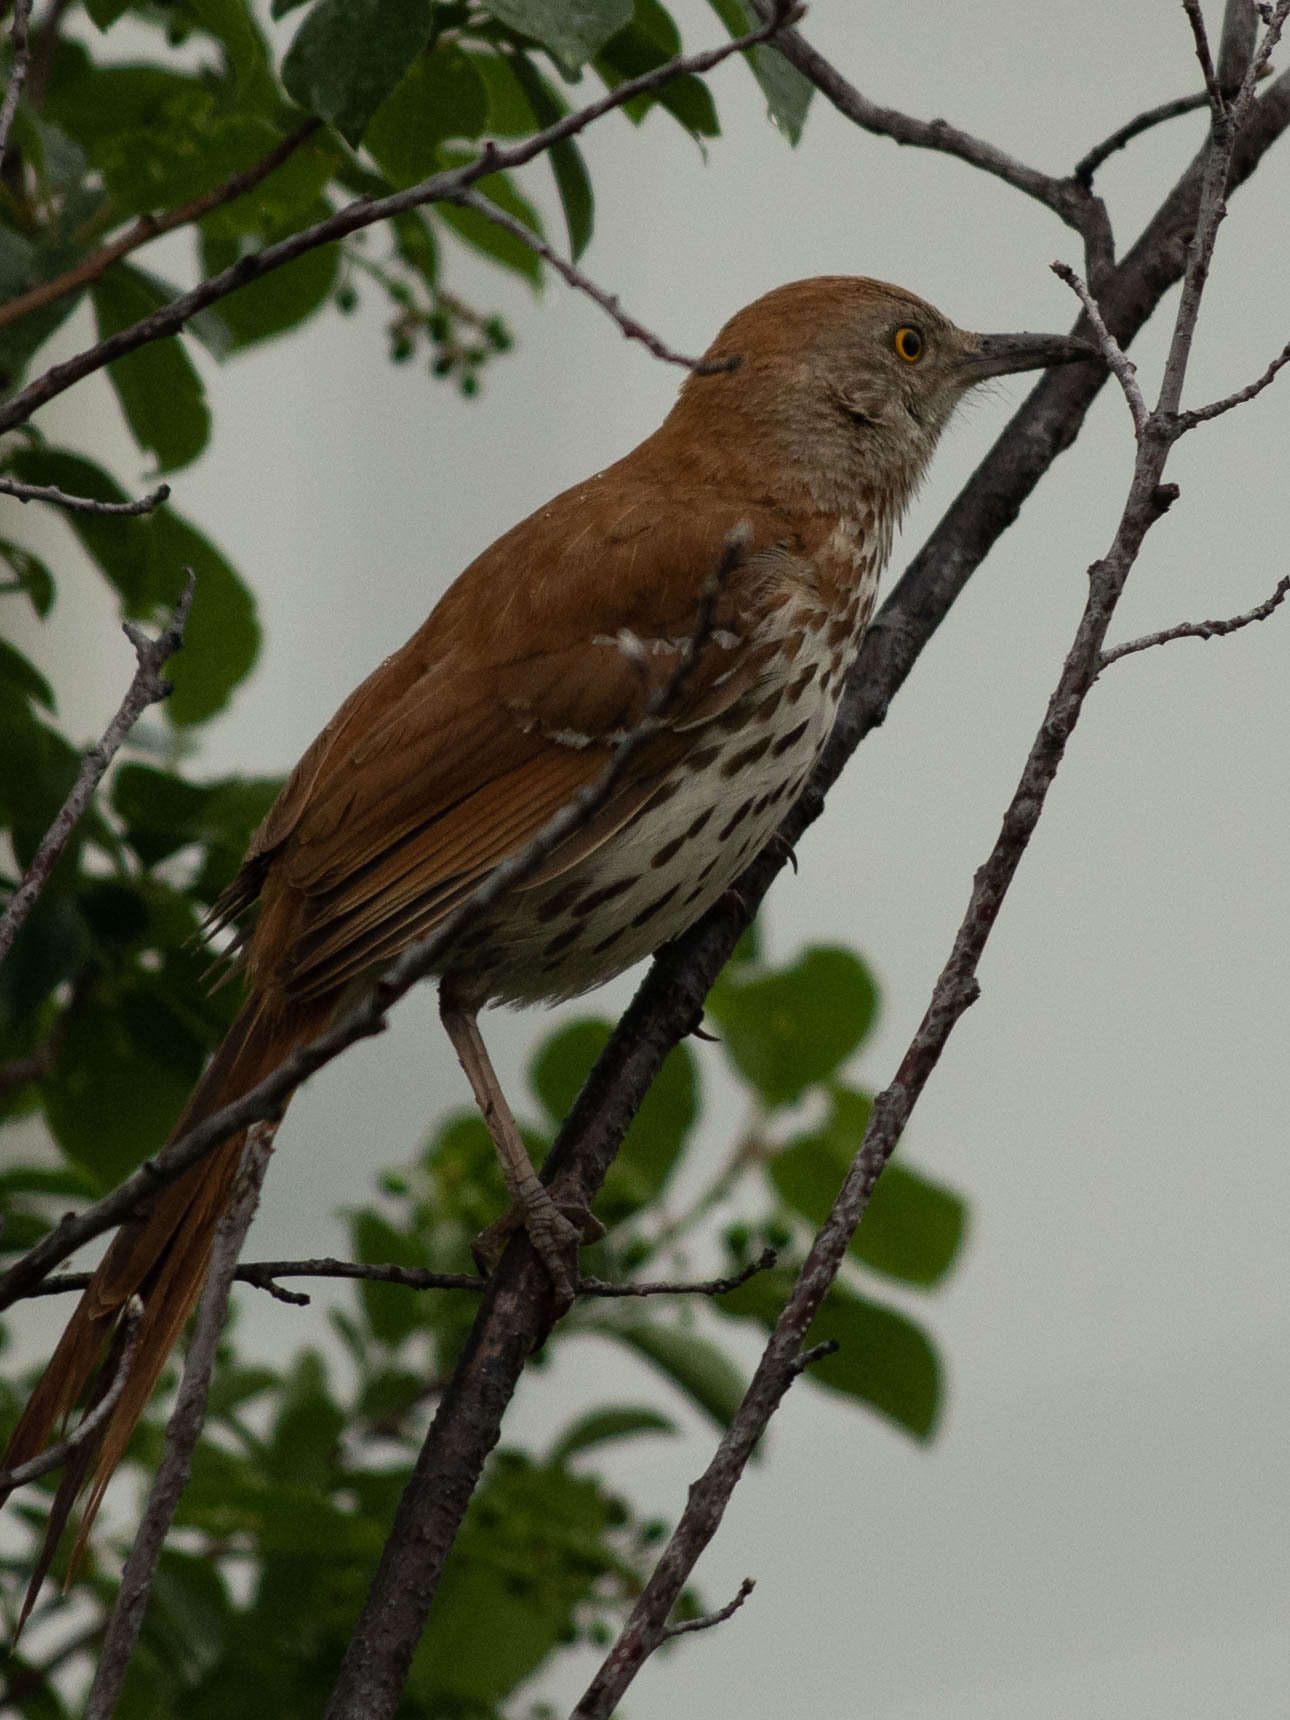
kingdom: Animalia
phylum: Chordata
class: Aves
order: Passeriformes
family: Mimidae
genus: Toxostoma
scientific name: Toxostoma rufum
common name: Brown thrasher
